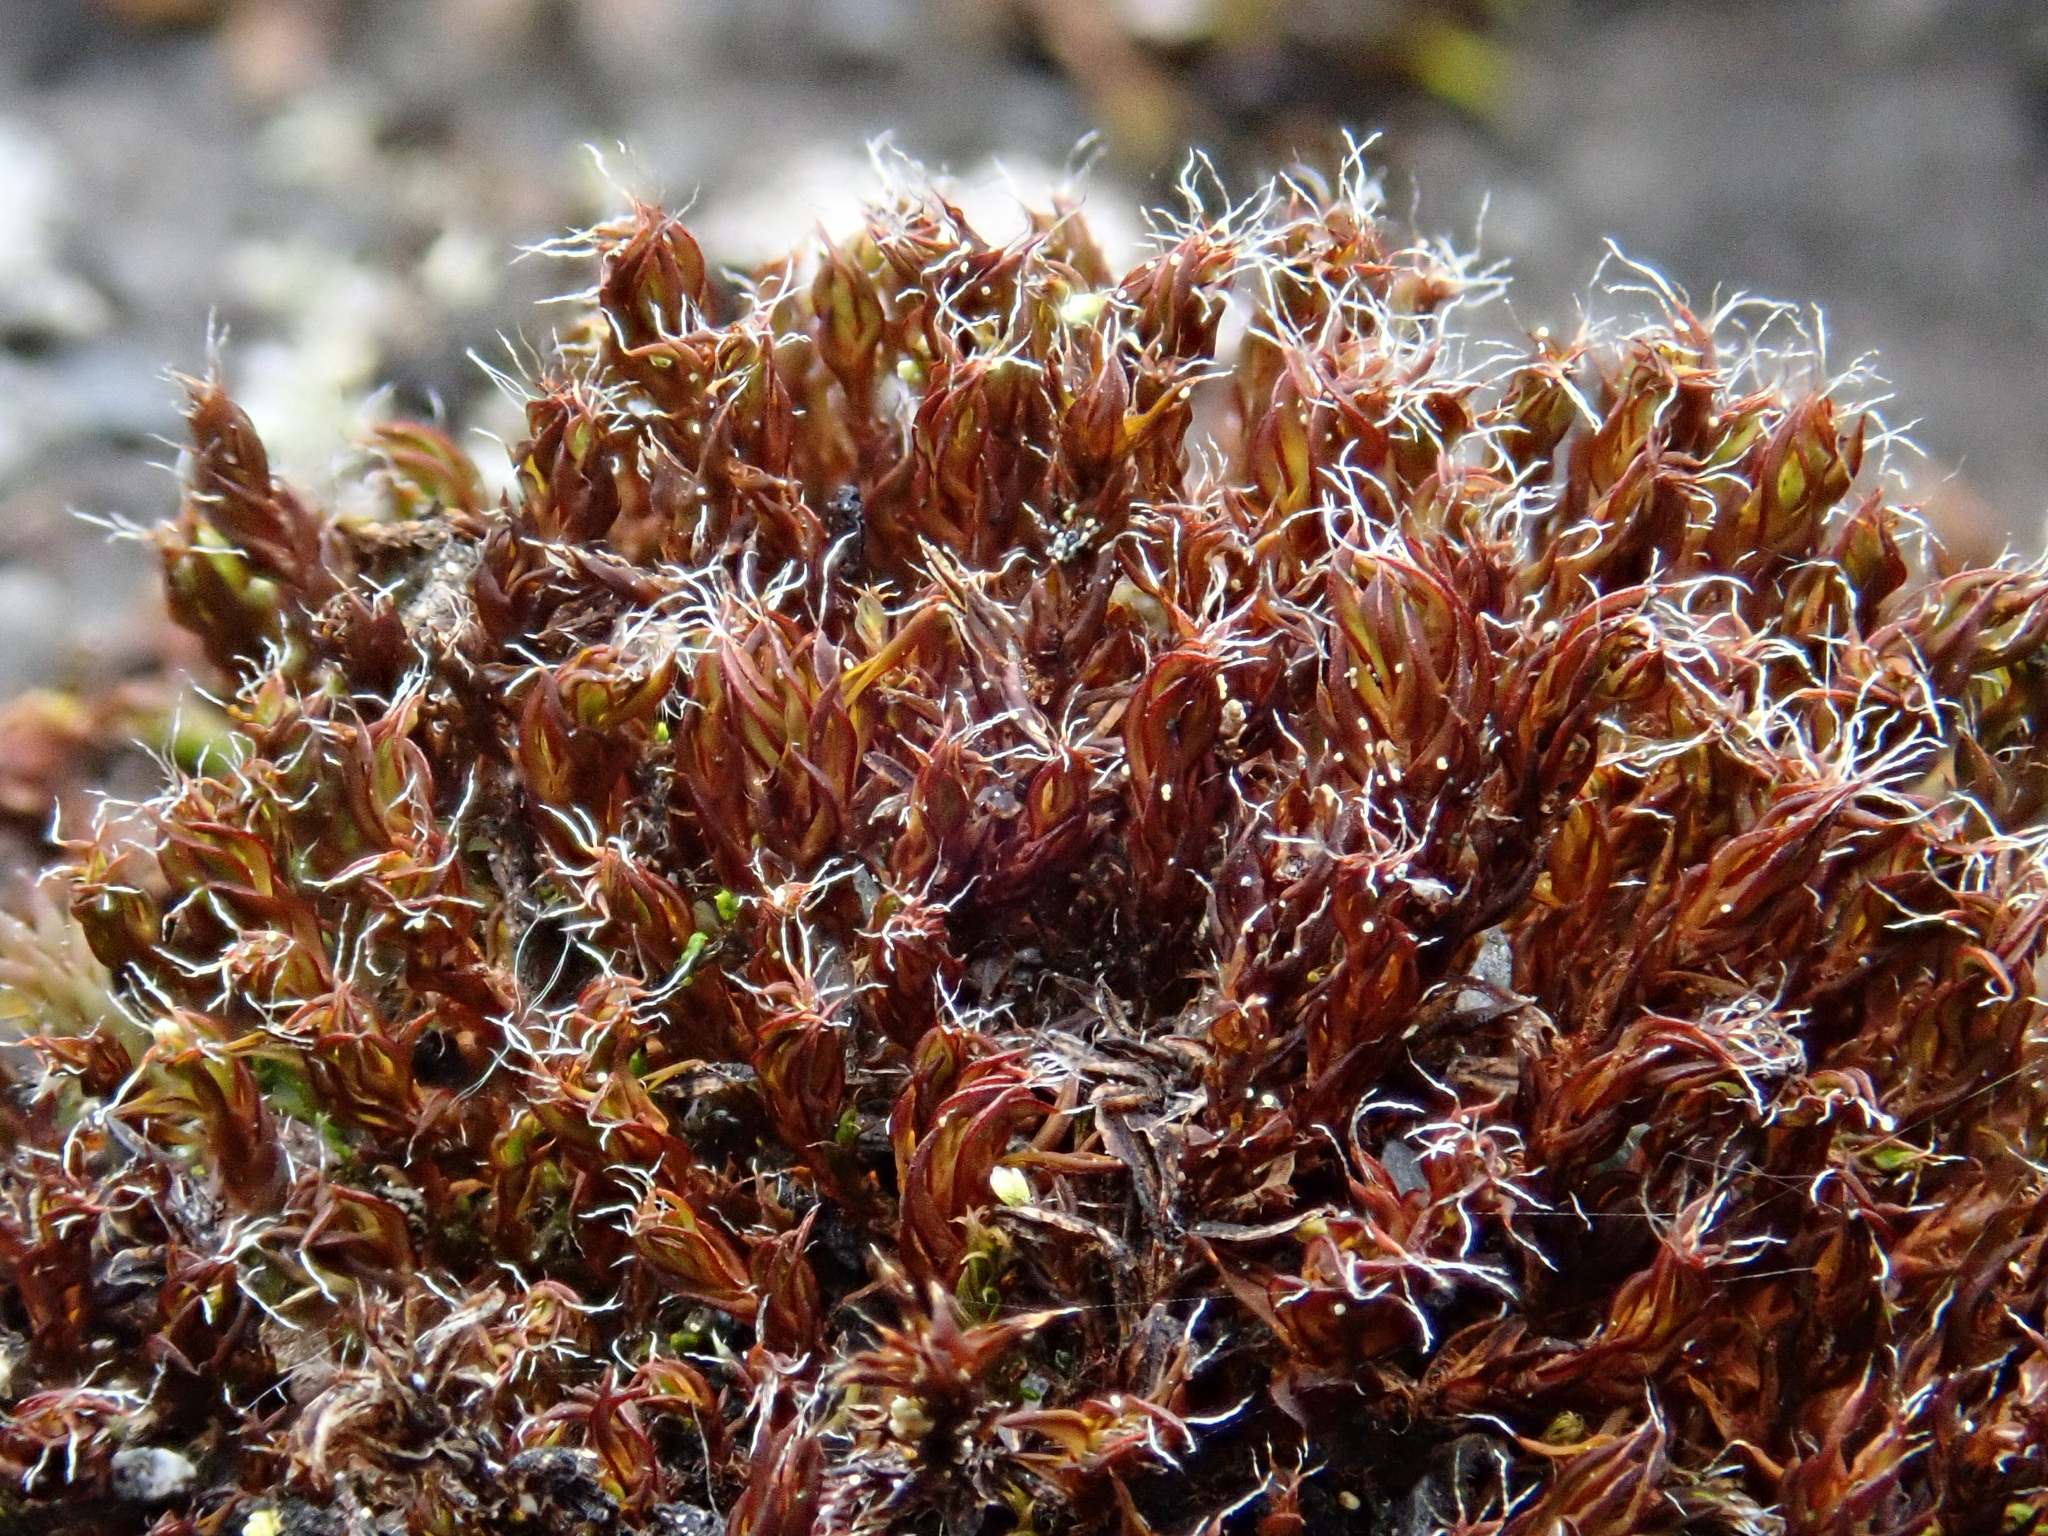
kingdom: Plantae
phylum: Bryophyta
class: Bryopsida
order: Pottiales
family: Pottiaceae
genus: Syntrichia
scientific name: Syntrichia ruralis
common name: Sidewalk screw moss
